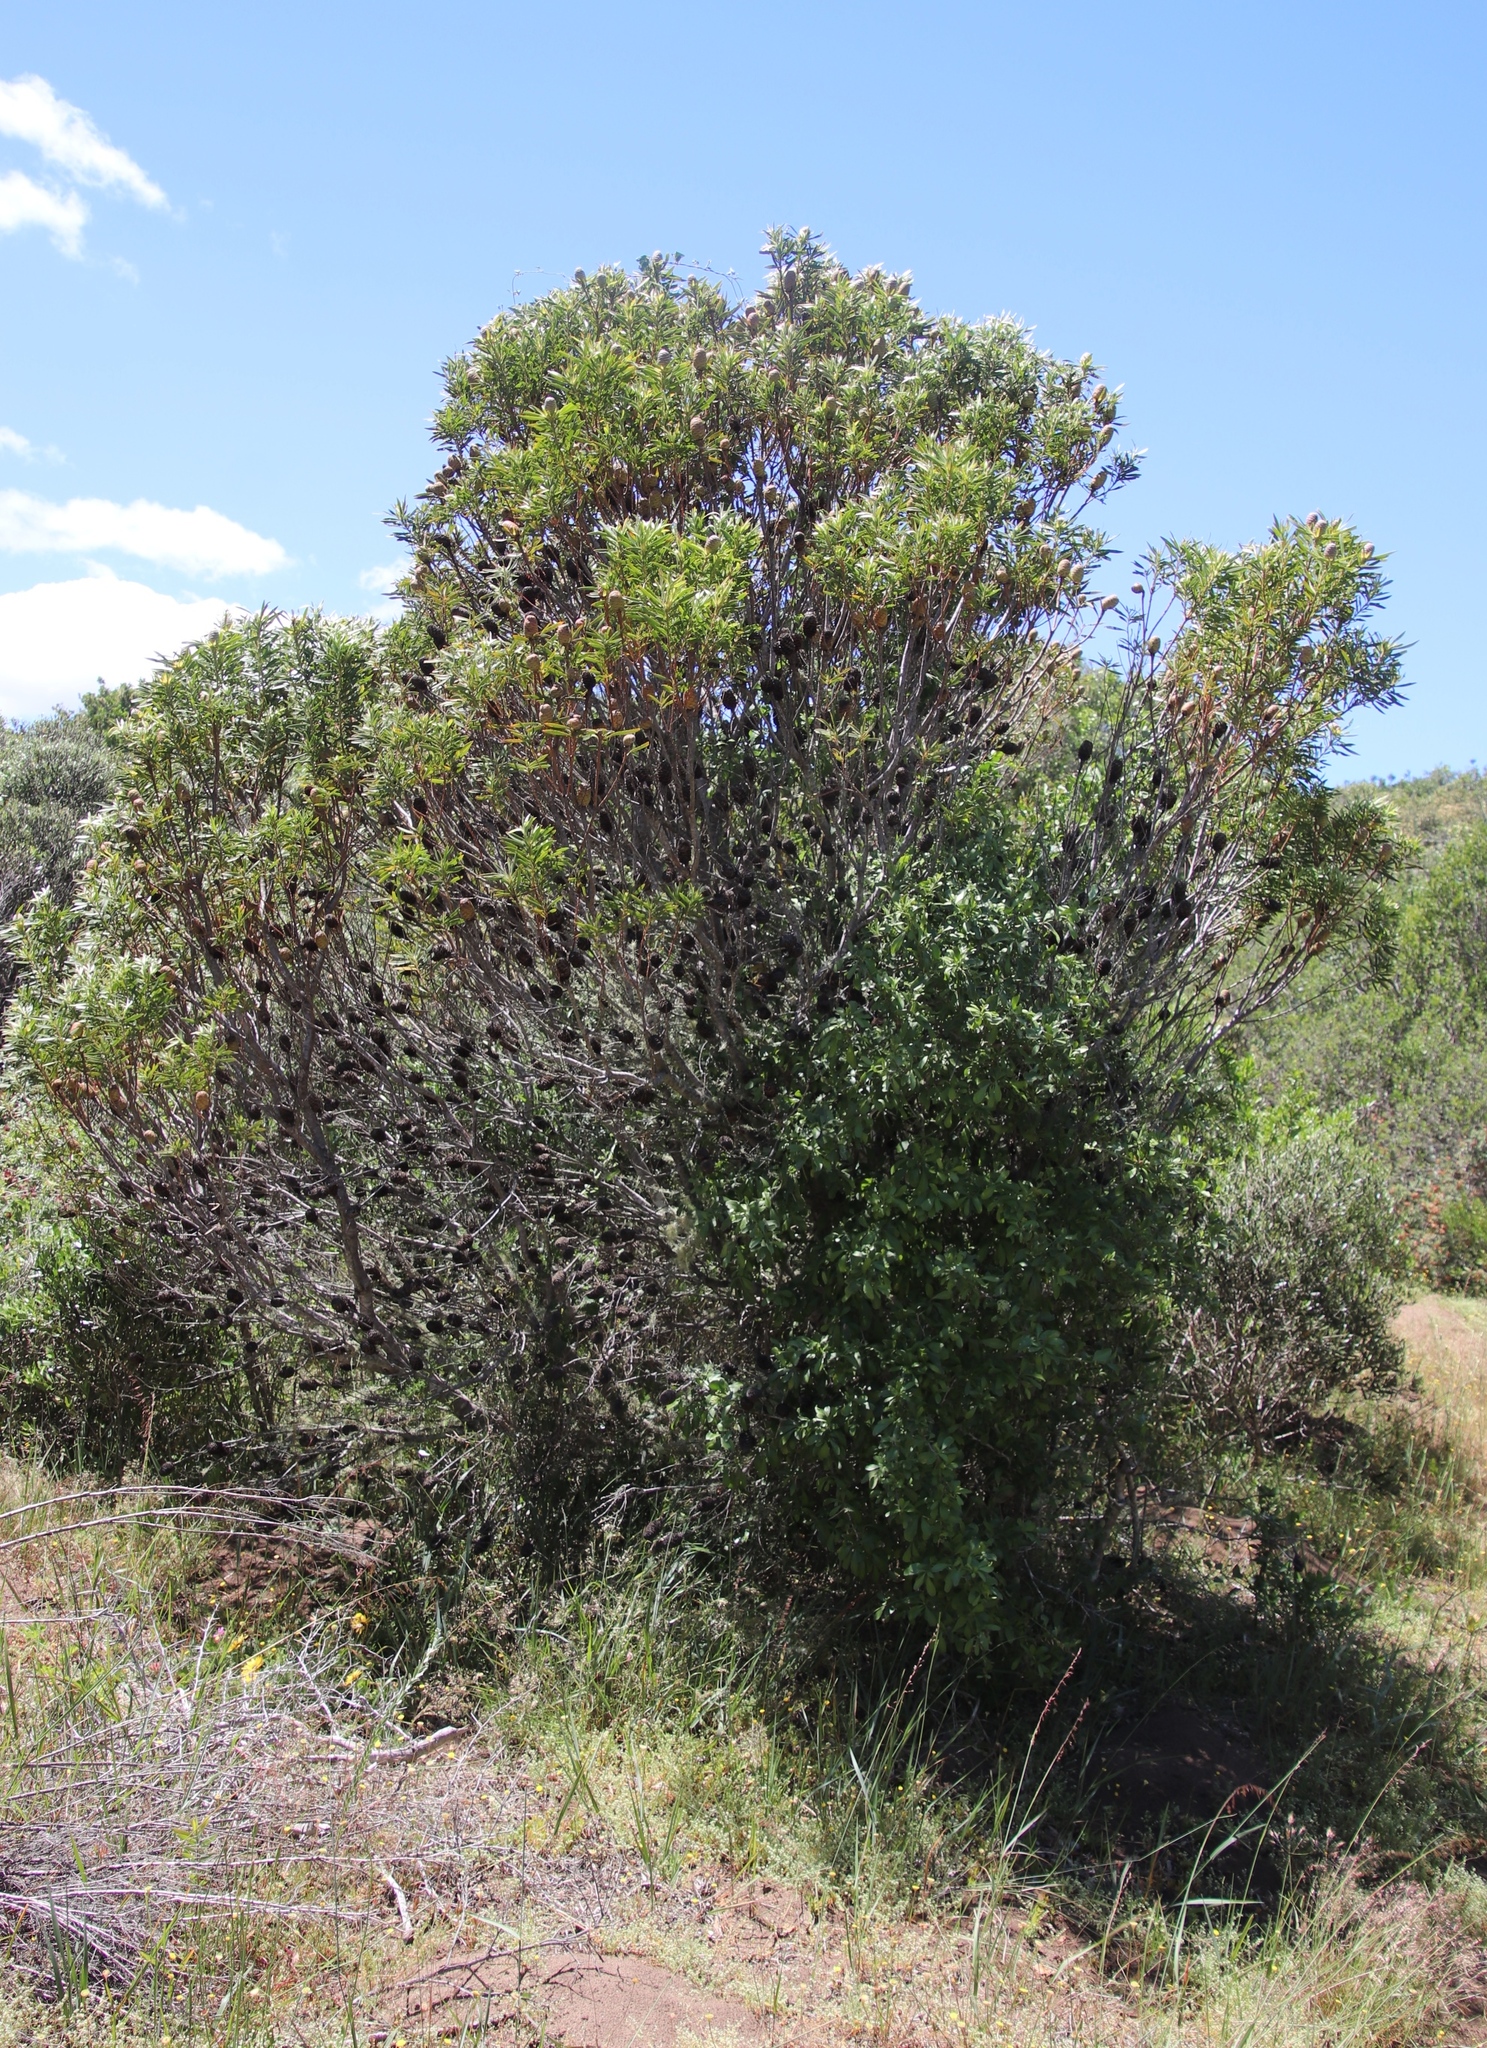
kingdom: Plantae
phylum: Tracheophyta
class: Magnoliopsida
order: Proteales
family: Proteaceae
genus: Leucadendron
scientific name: Leucadendron coniferum
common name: Dune conebush
